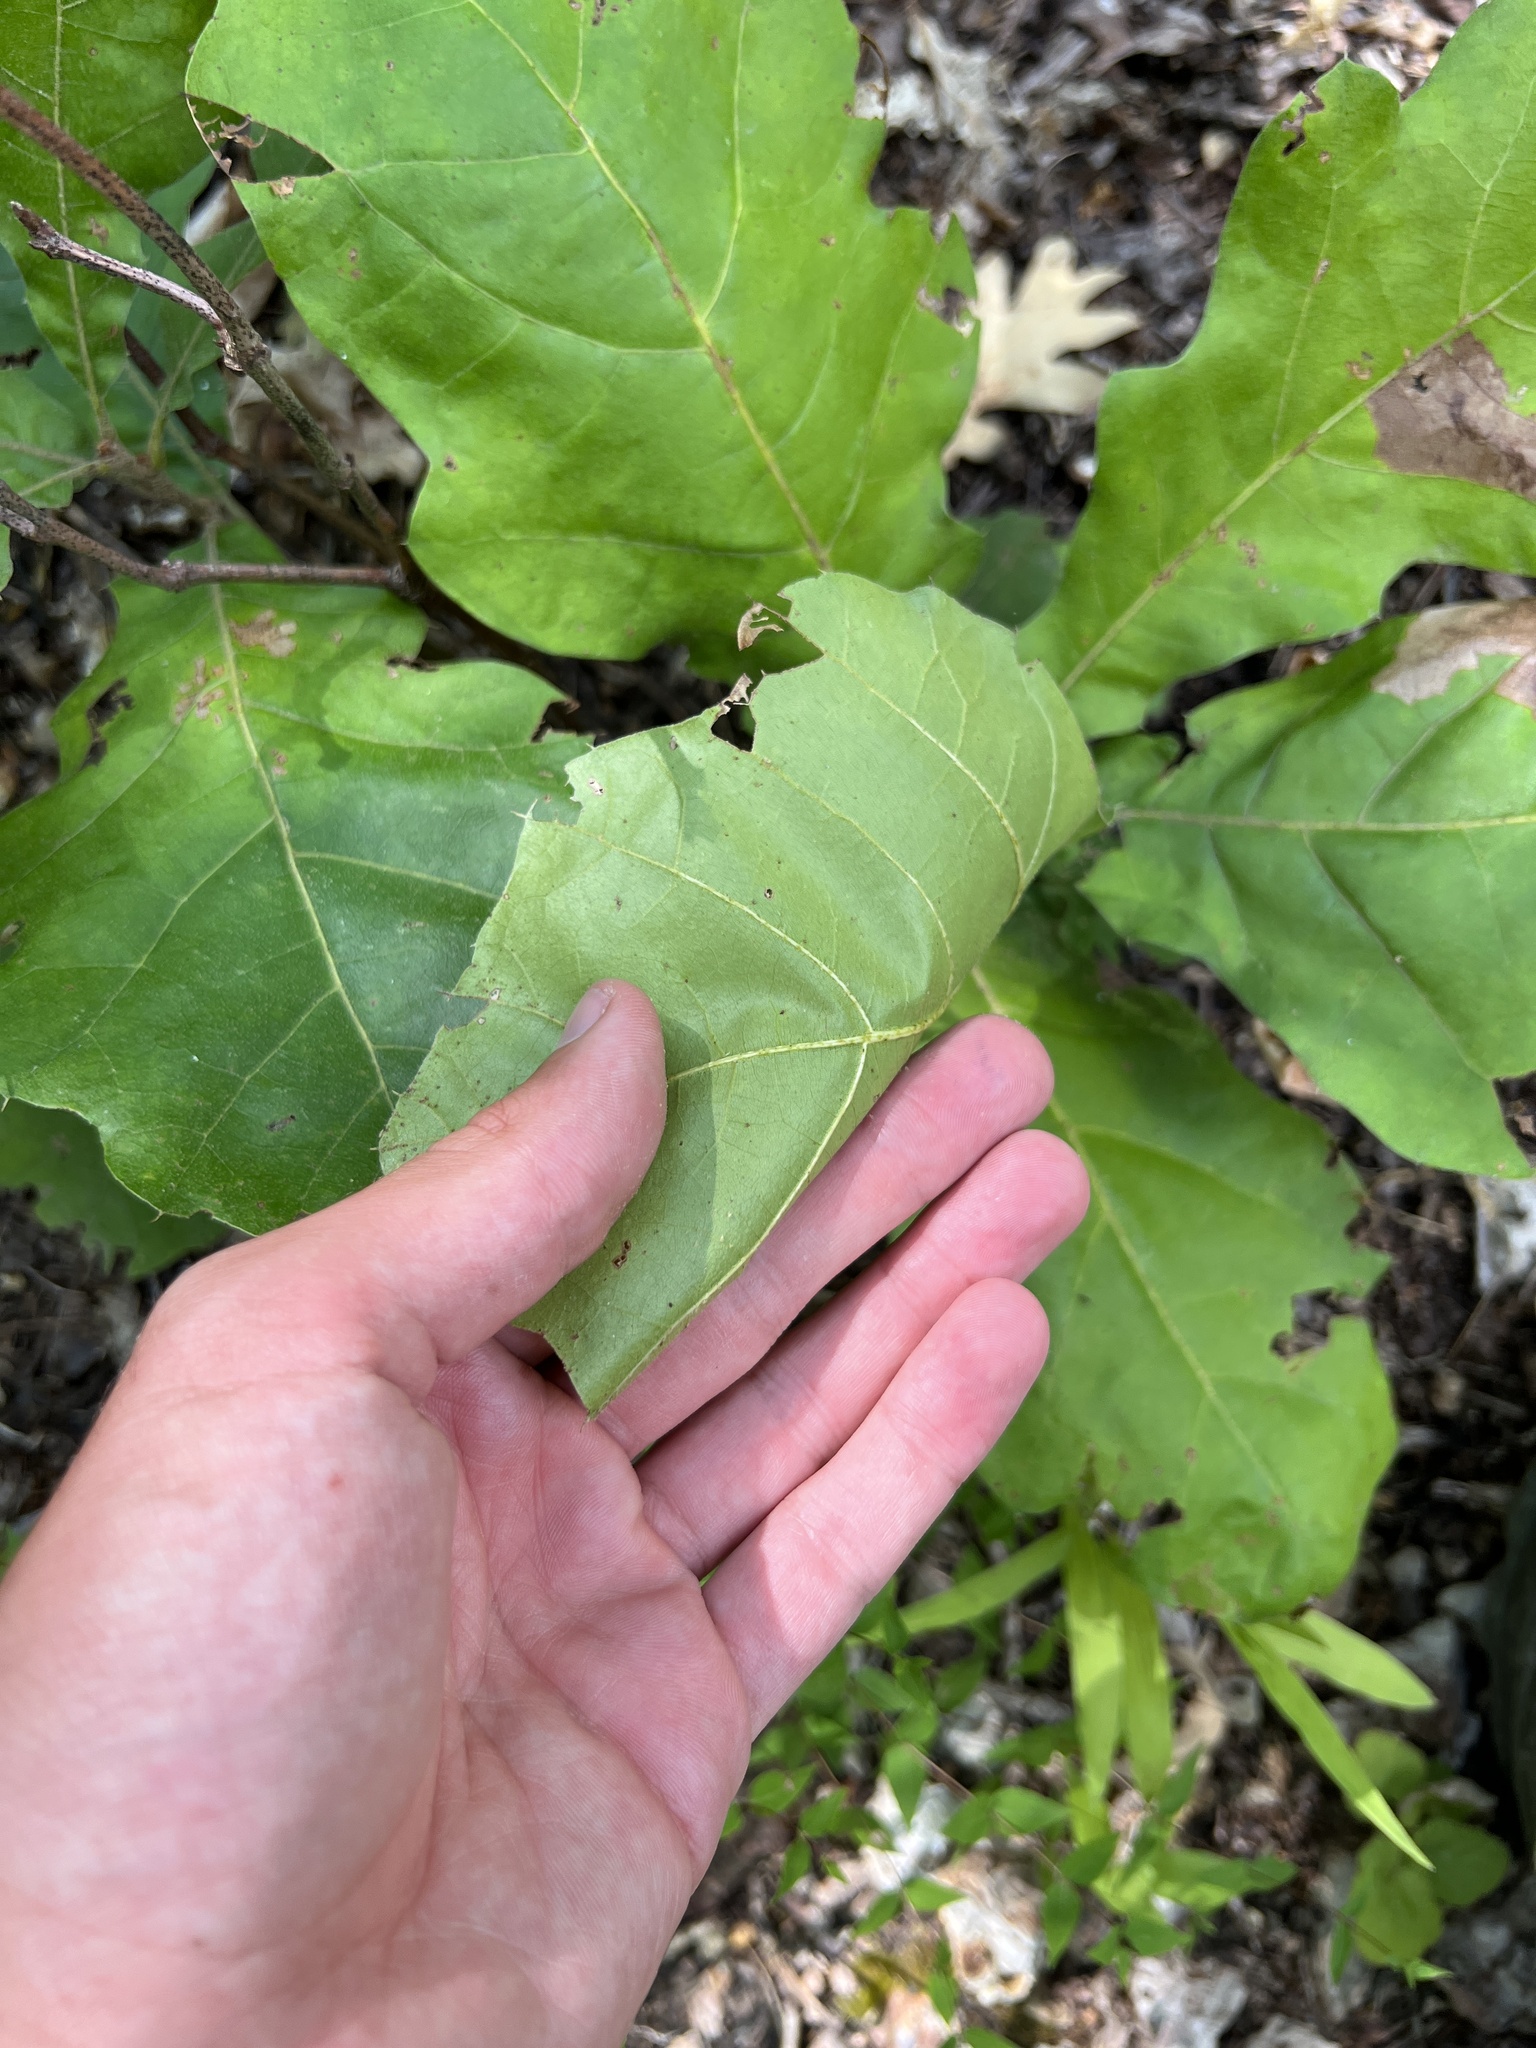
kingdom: Plantae
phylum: Tracheophyta
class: Magnoliopsida
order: Fagales
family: Fagaceae
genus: Quercus
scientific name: Quercus velutina
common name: Black oak
